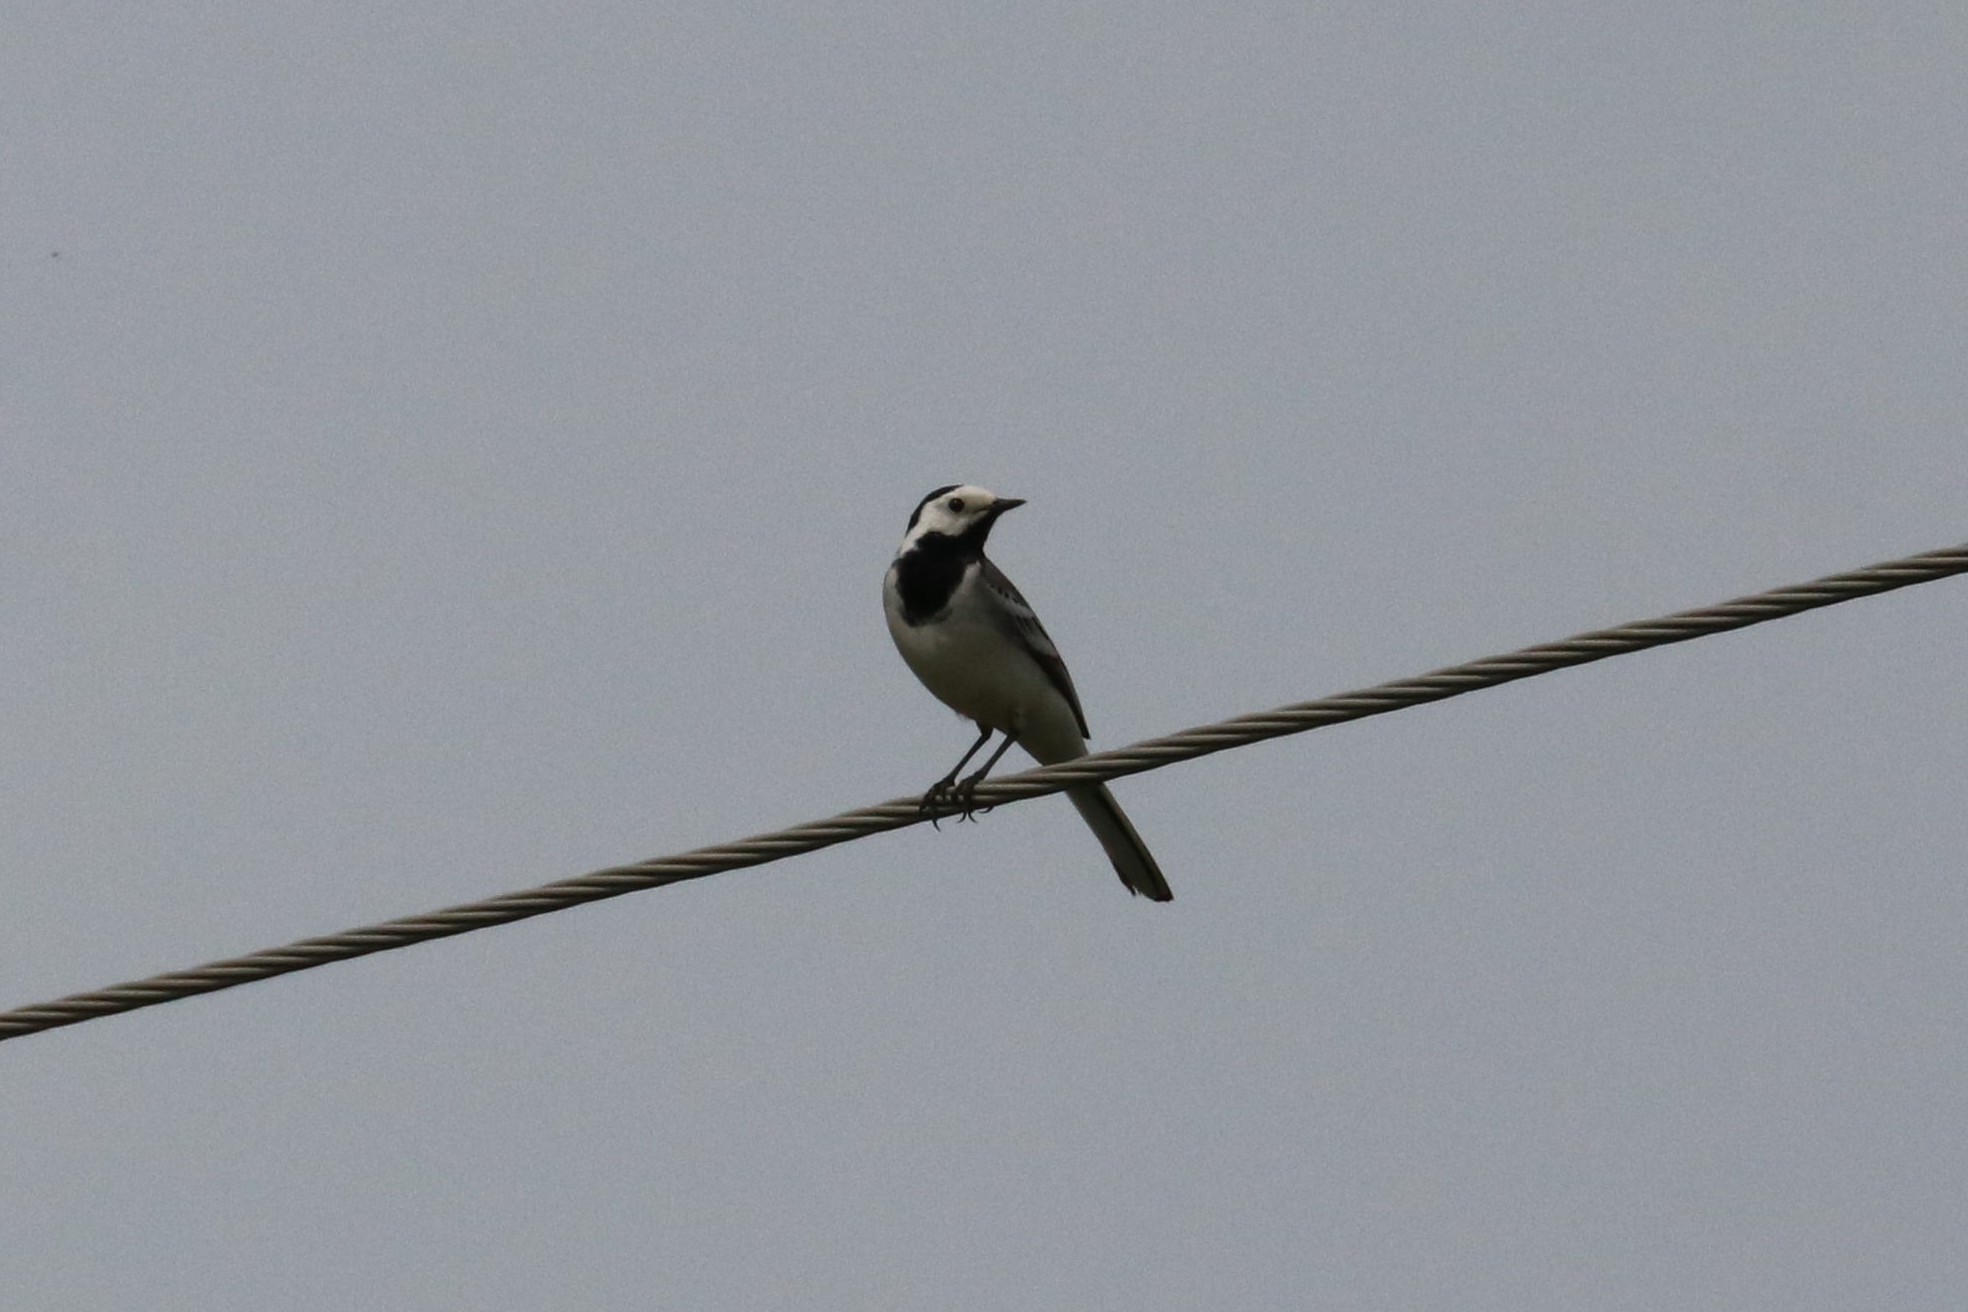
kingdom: Animalia
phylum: Chordata
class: Aves
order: Passeriformes
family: Motacillidae
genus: Motacilla
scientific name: Motacilla alba
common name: White wagtail
